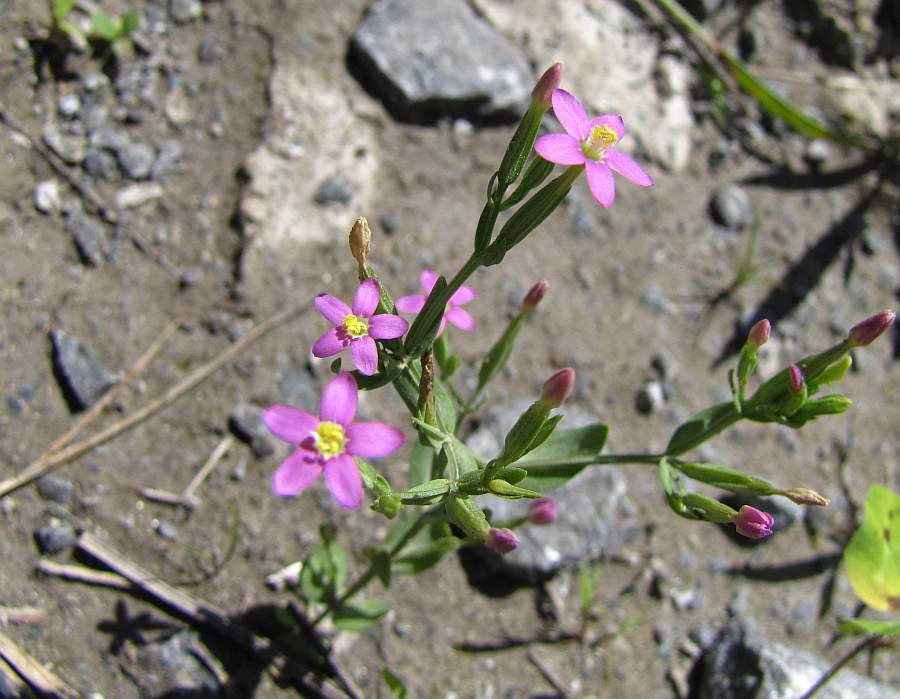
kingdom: Plantae
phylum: Tracheophyta
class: Magnoliopsida
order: Gentianales
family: Gentianaceae
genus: Centaurium
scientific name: Centaurium pulchellum
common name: Lesser centaury
